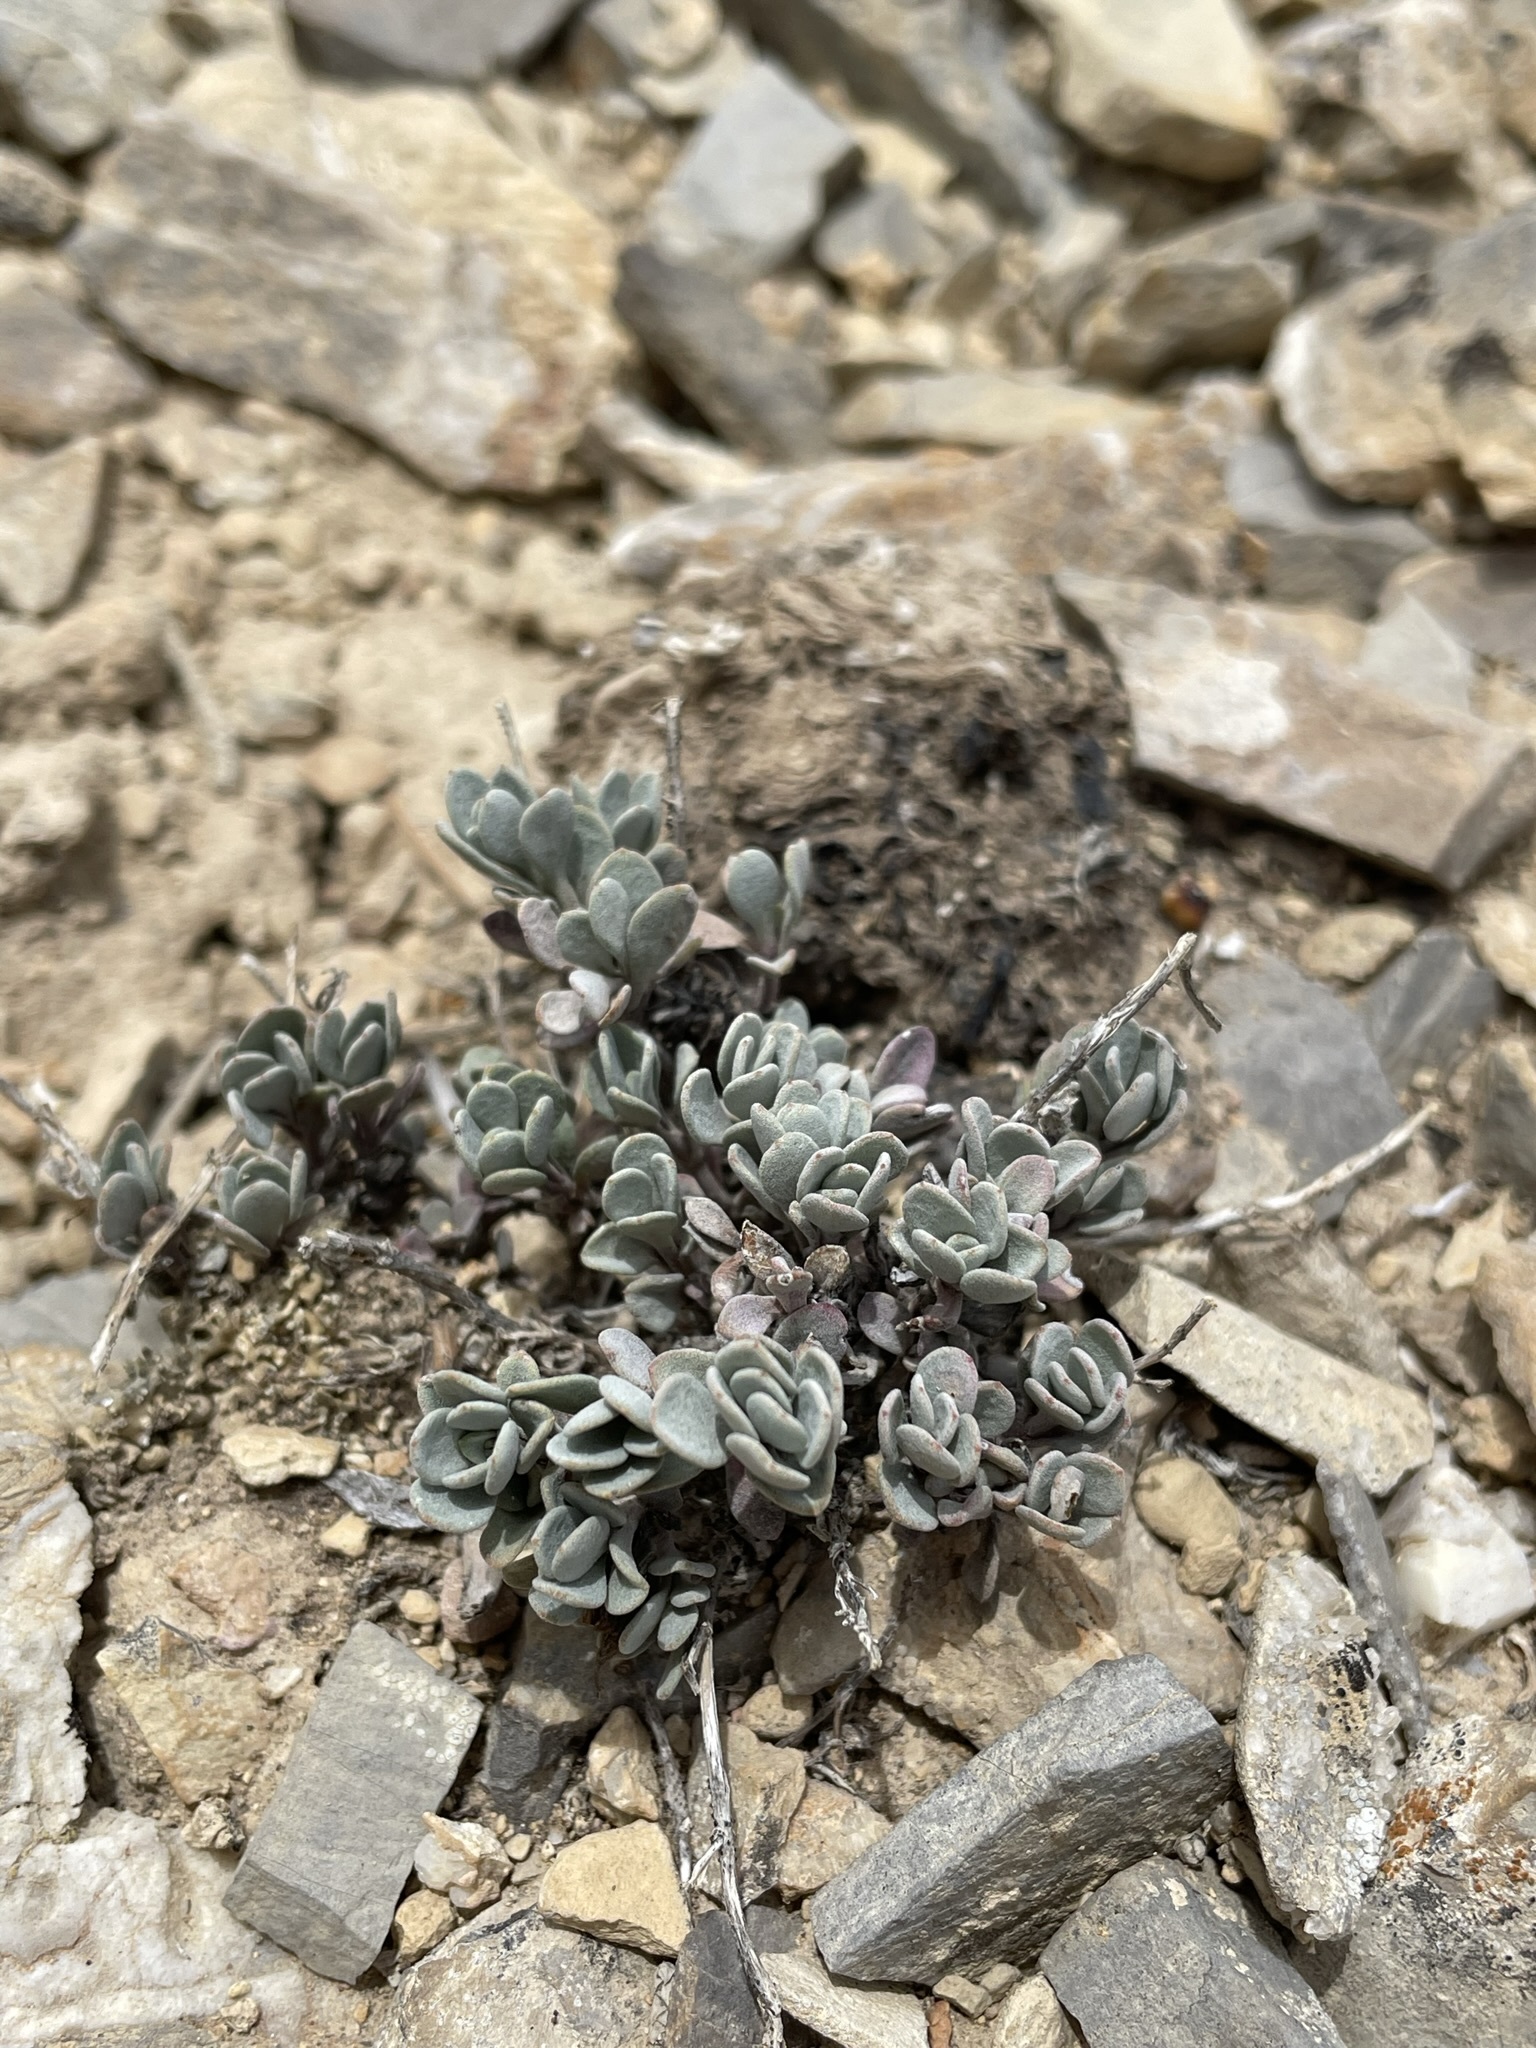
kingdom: Plantae
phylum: Tracheophyta
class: Magnoliopsida
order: Lamiales
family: Plantaginaceae
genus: Penstemon
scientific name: Penstemon thompsoniae
